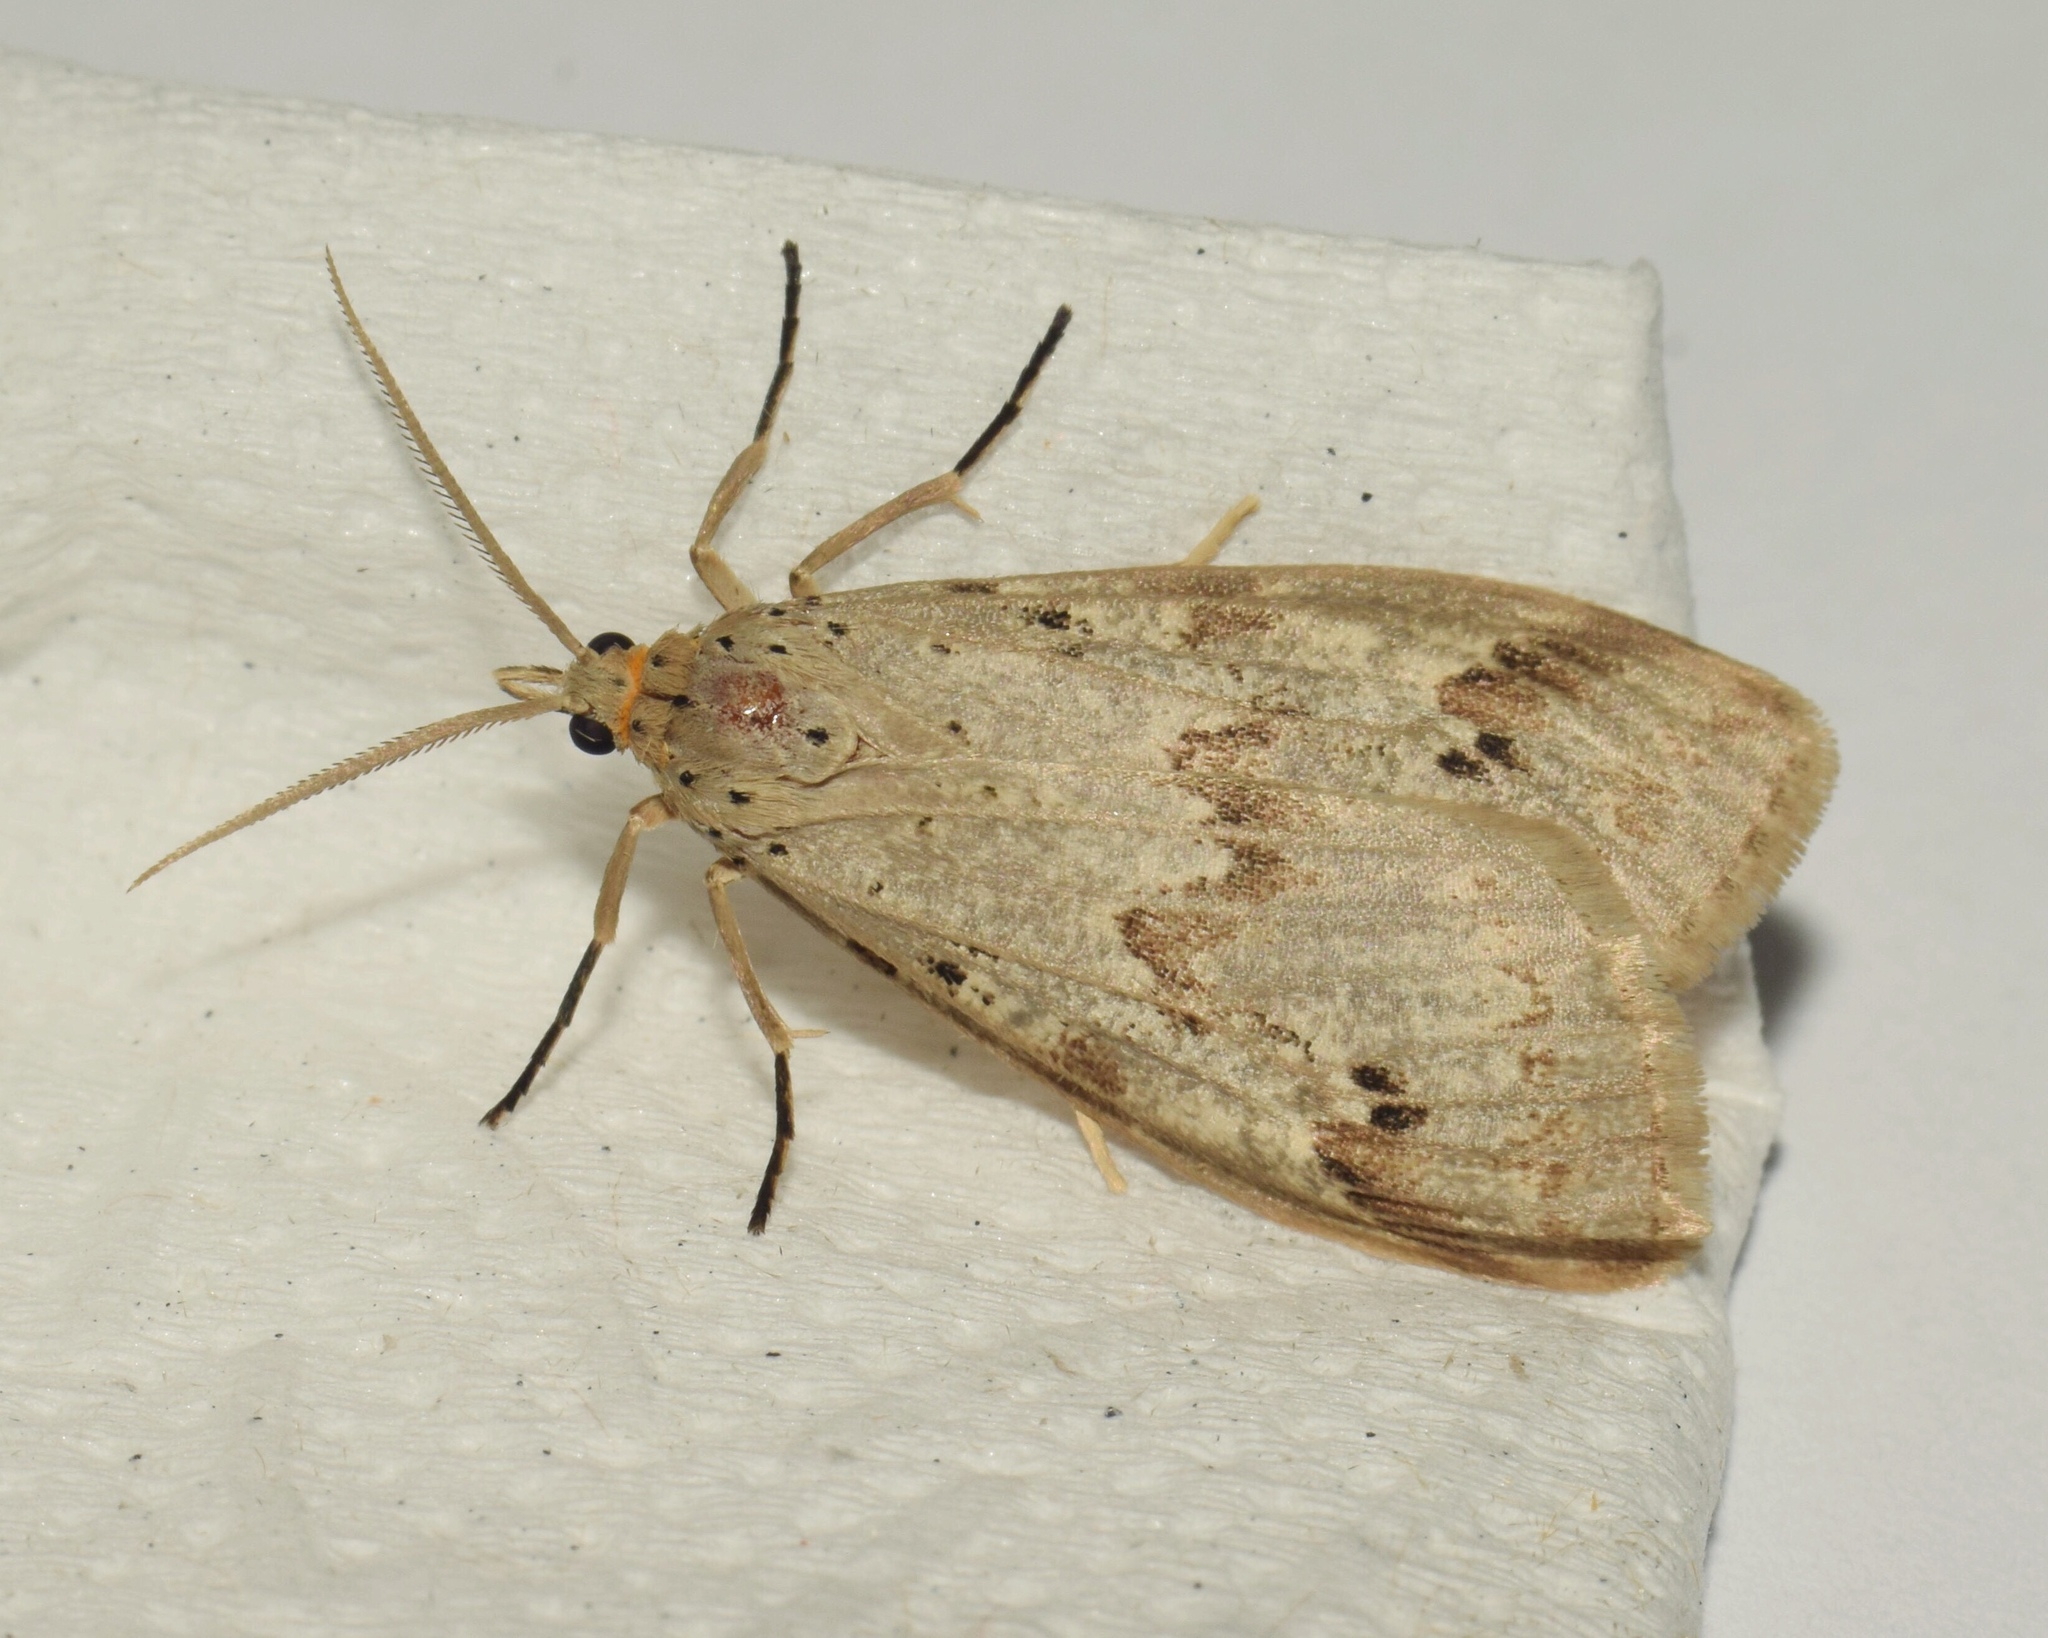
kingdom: Animalia
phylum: Arthropoda
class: Insecta
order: Lepidoptera
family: Erebidae
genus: Galtara
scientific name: Galtara rostrata
